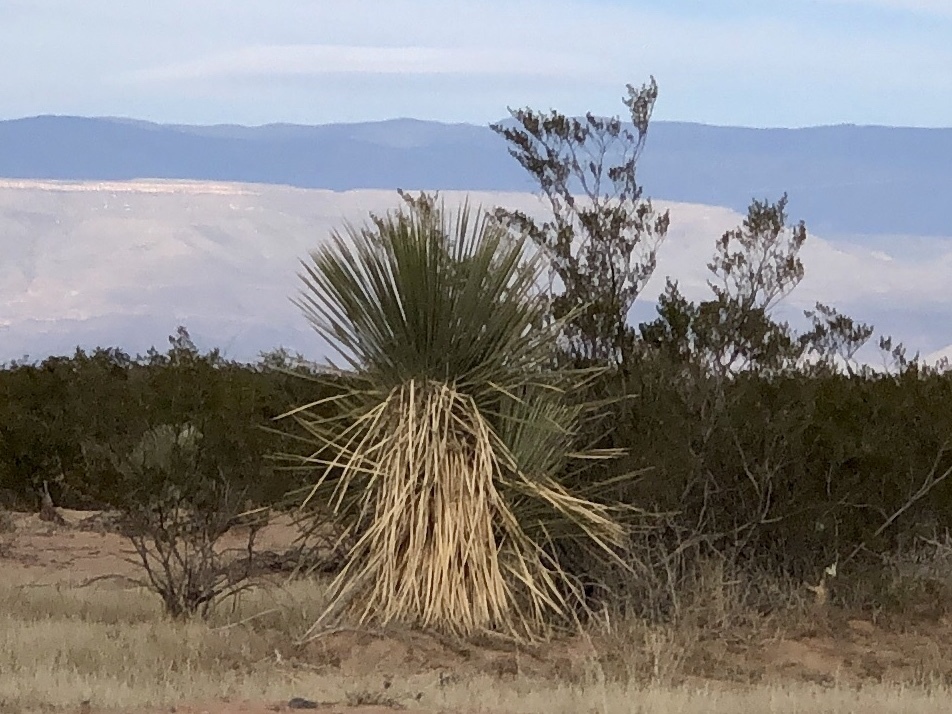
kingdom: Plantae
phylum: Tracheophyta
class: Liliopsida
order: Asparagales
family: Asparagaceae
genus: Yucca
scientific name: Yucca elata
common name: Palmella
